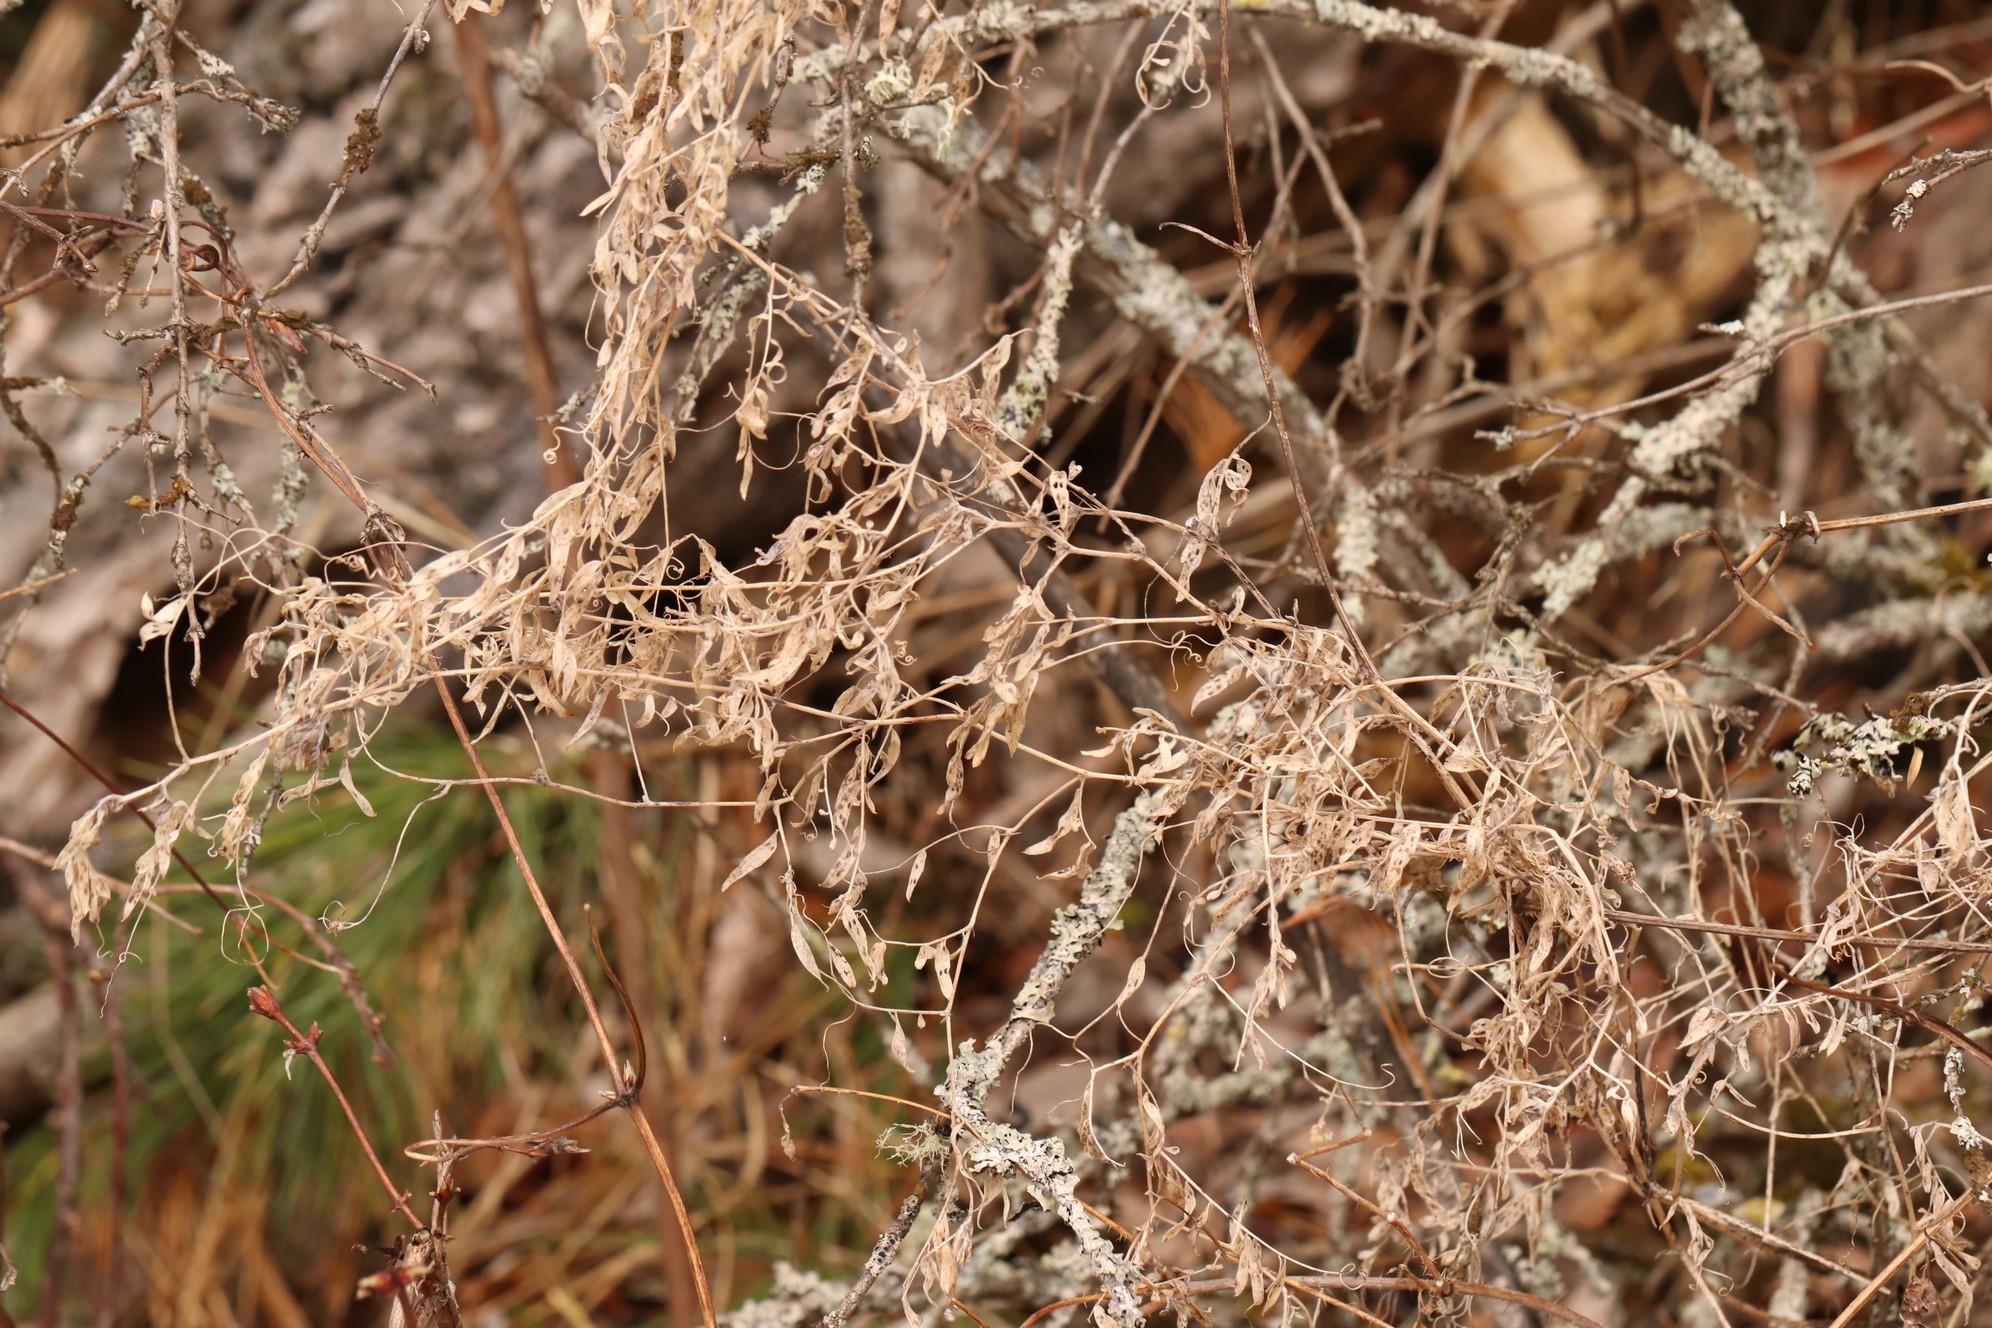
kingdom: Plantae
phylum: Tracheophyta
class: Magnoliopsida
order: Fabales
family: Fabaceae
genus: Vicia
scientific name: Vicia cracca
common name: Bird vetch
